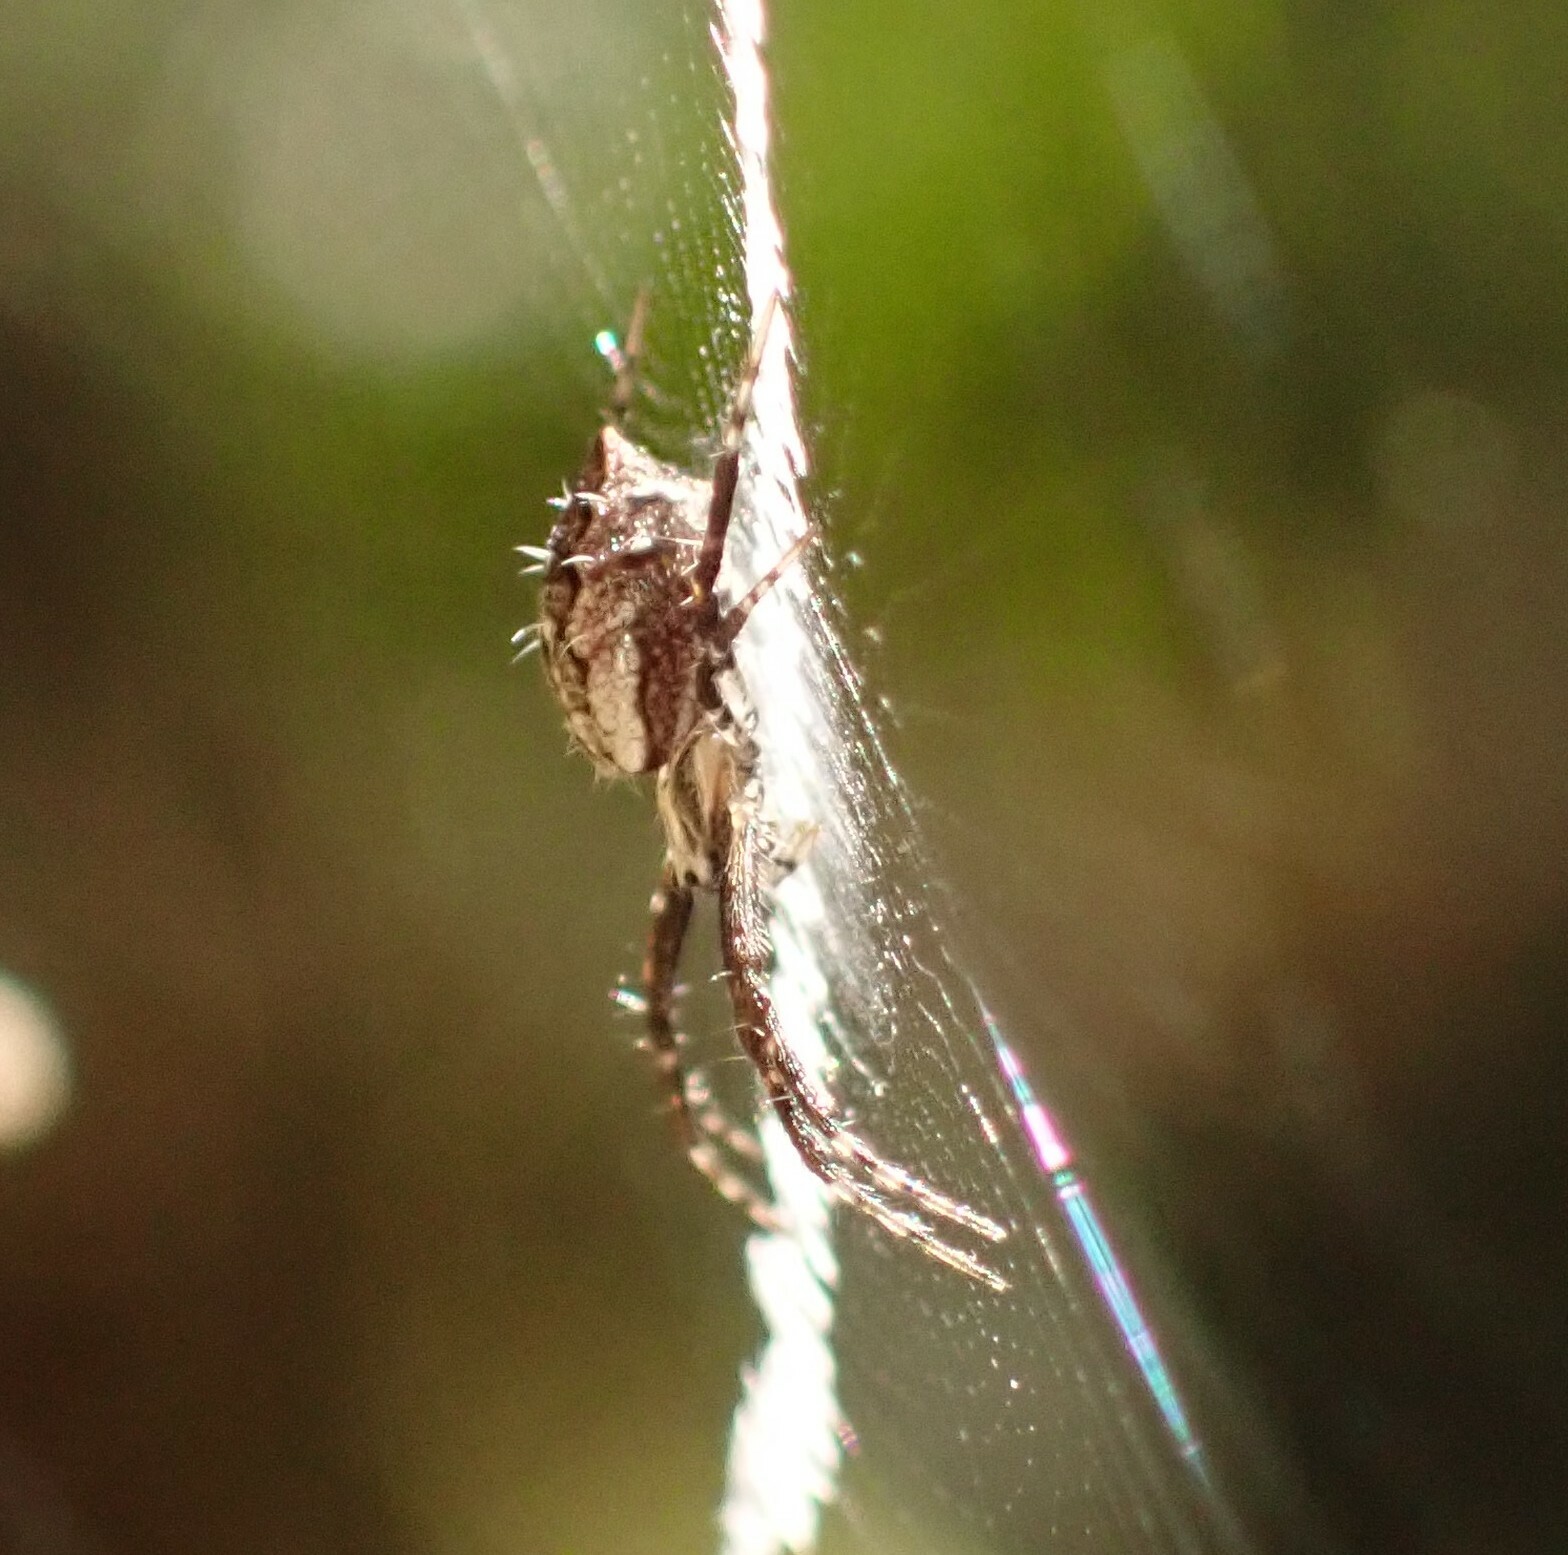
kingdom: Animalia
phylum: Arthropoda
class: Arachnida
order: Araneae
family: Araneidae
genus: Argiope
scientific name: Argiope argentata
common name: Orb weavers
